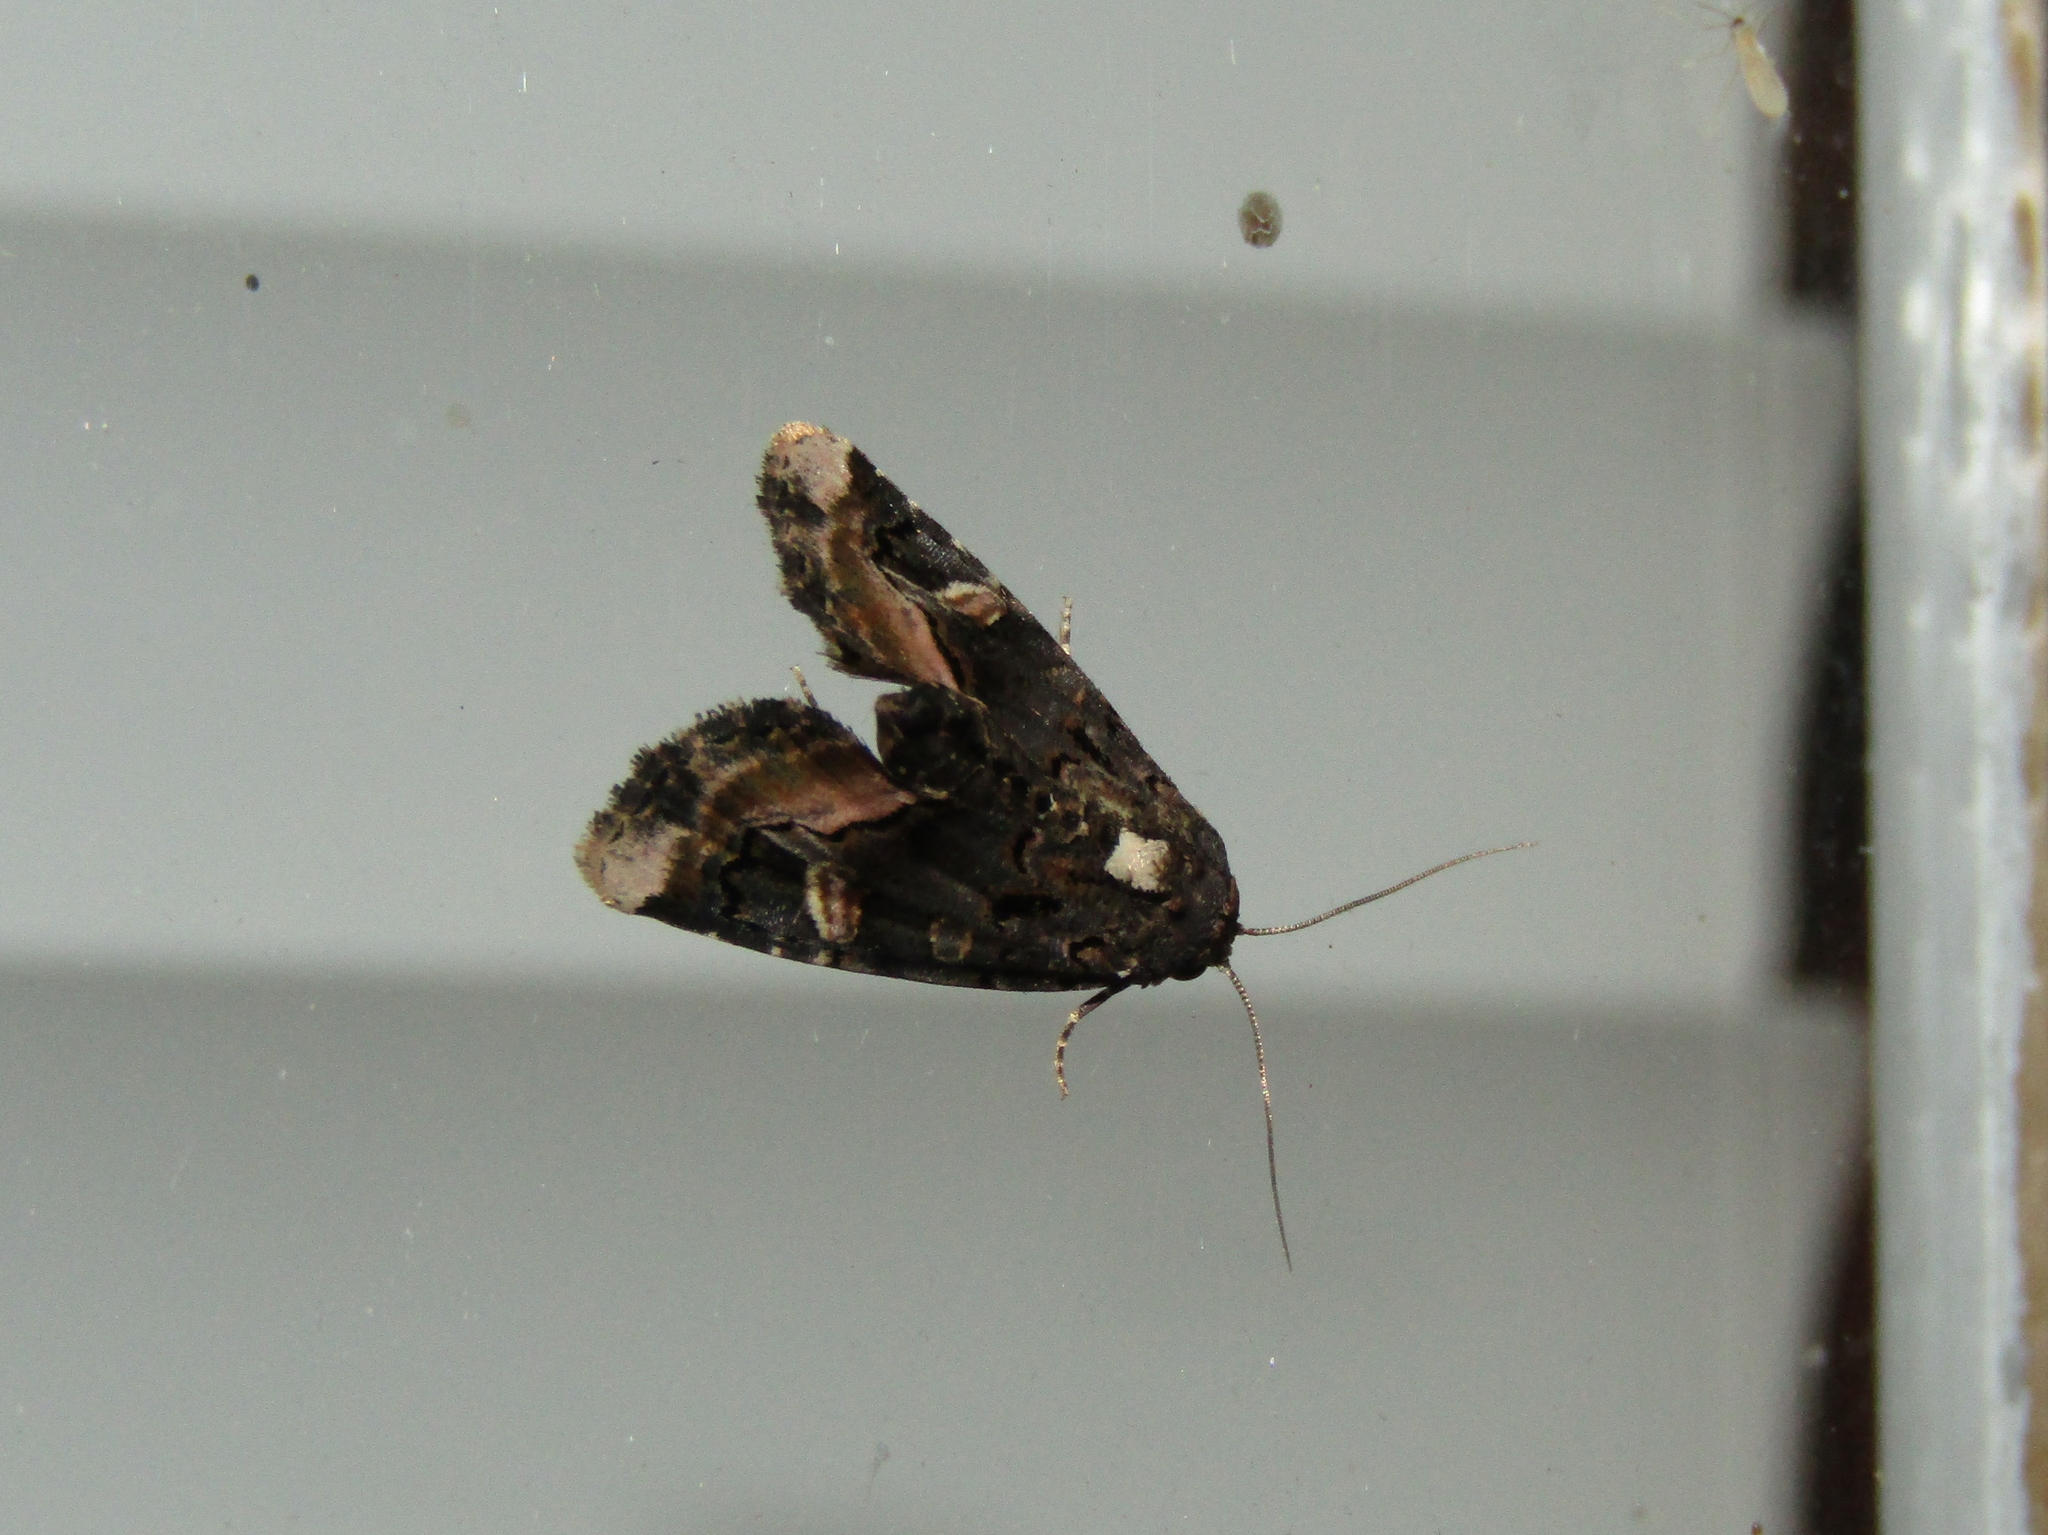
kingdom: Animalia
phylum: Arthropoda
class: Insecta
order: Lepidoptera
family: Noctuidae
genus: Homophoberia
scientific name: Homophoberia apicosa
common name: Black wedge-spot
